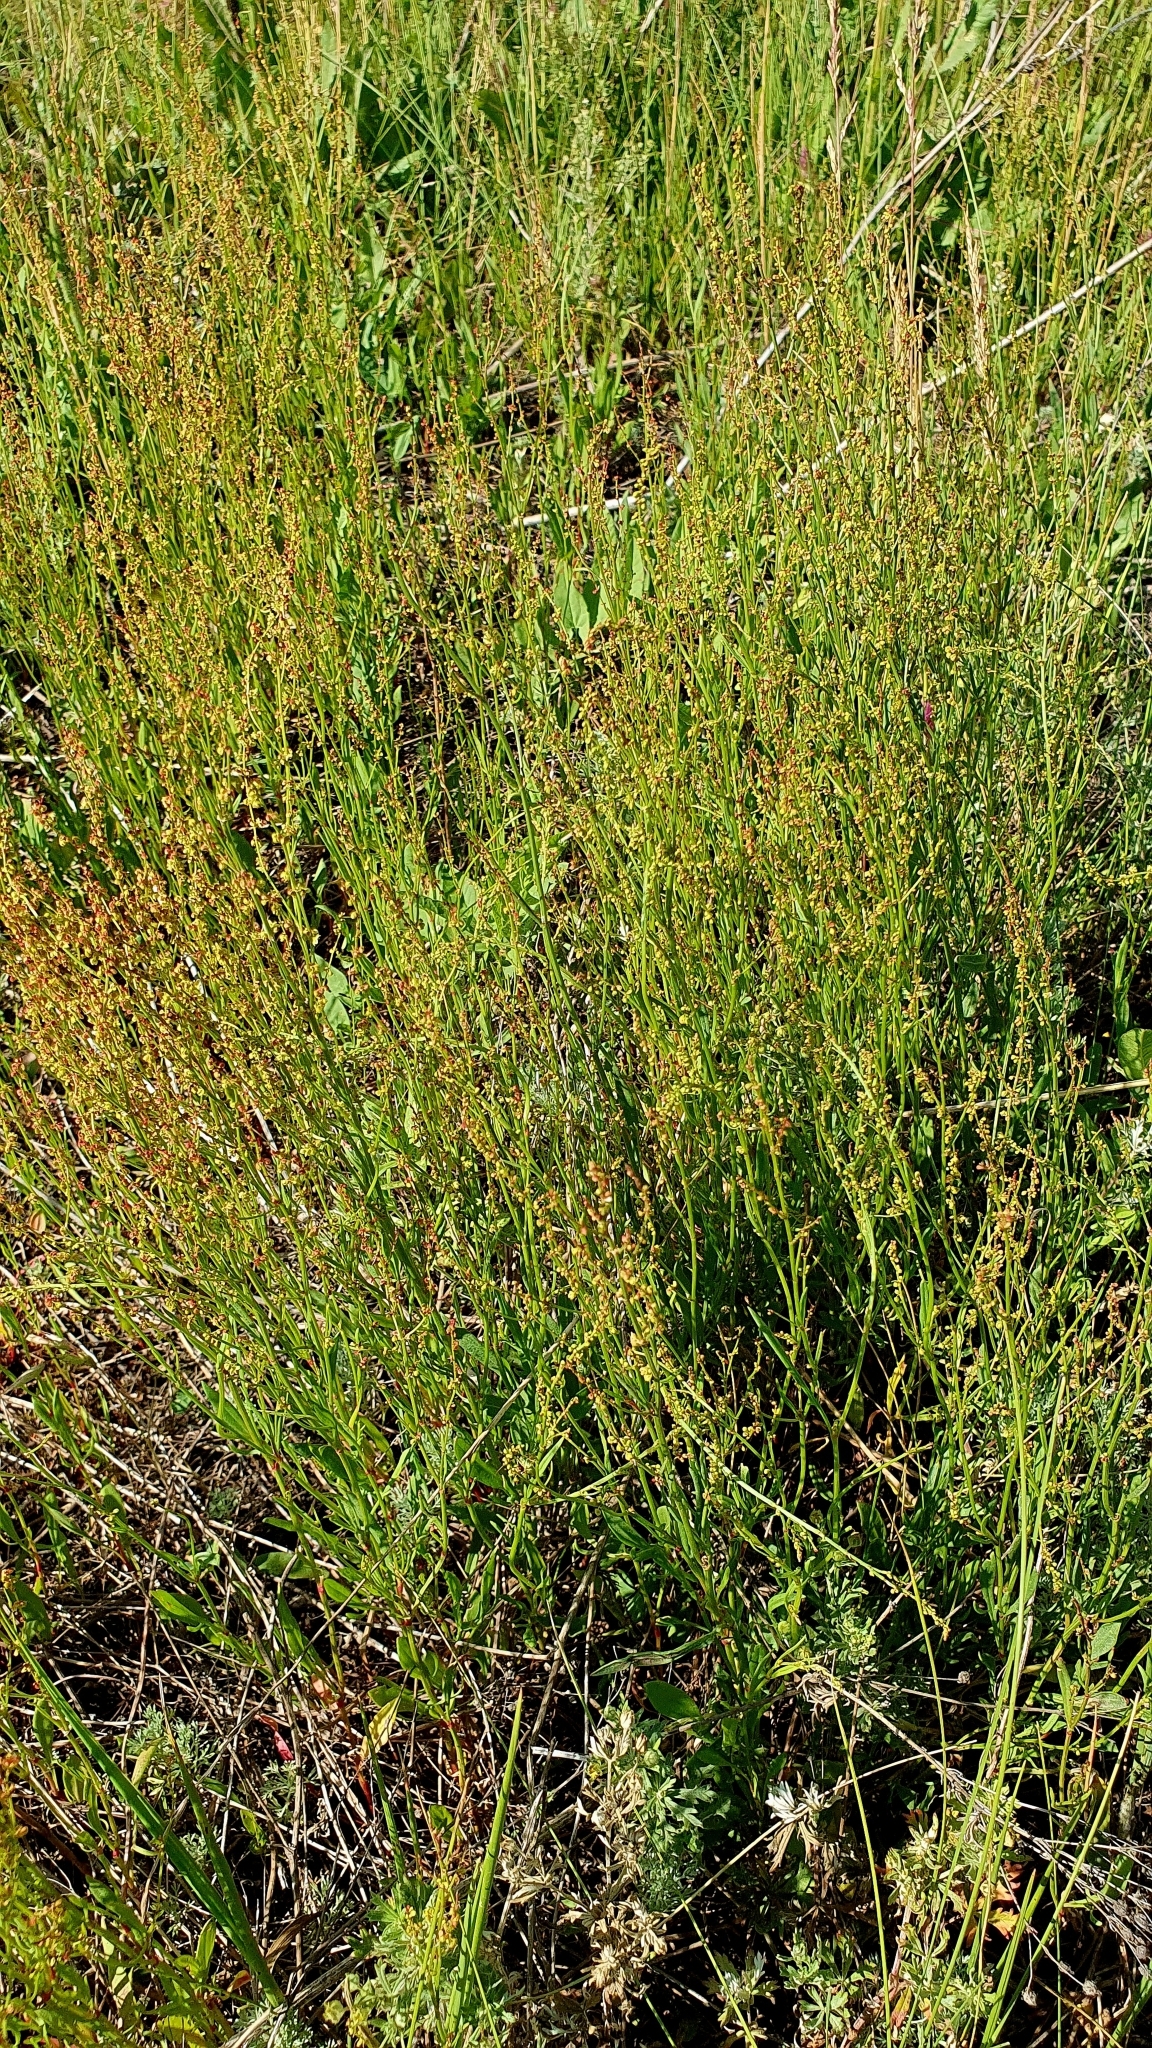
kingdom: Plantae
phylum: Tracheophyta
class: Magnoliopsida
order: Caryophyllales
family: Polygonaceae
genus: Rumex
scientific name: Rumex acetosella
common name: Common sheep sorrel
